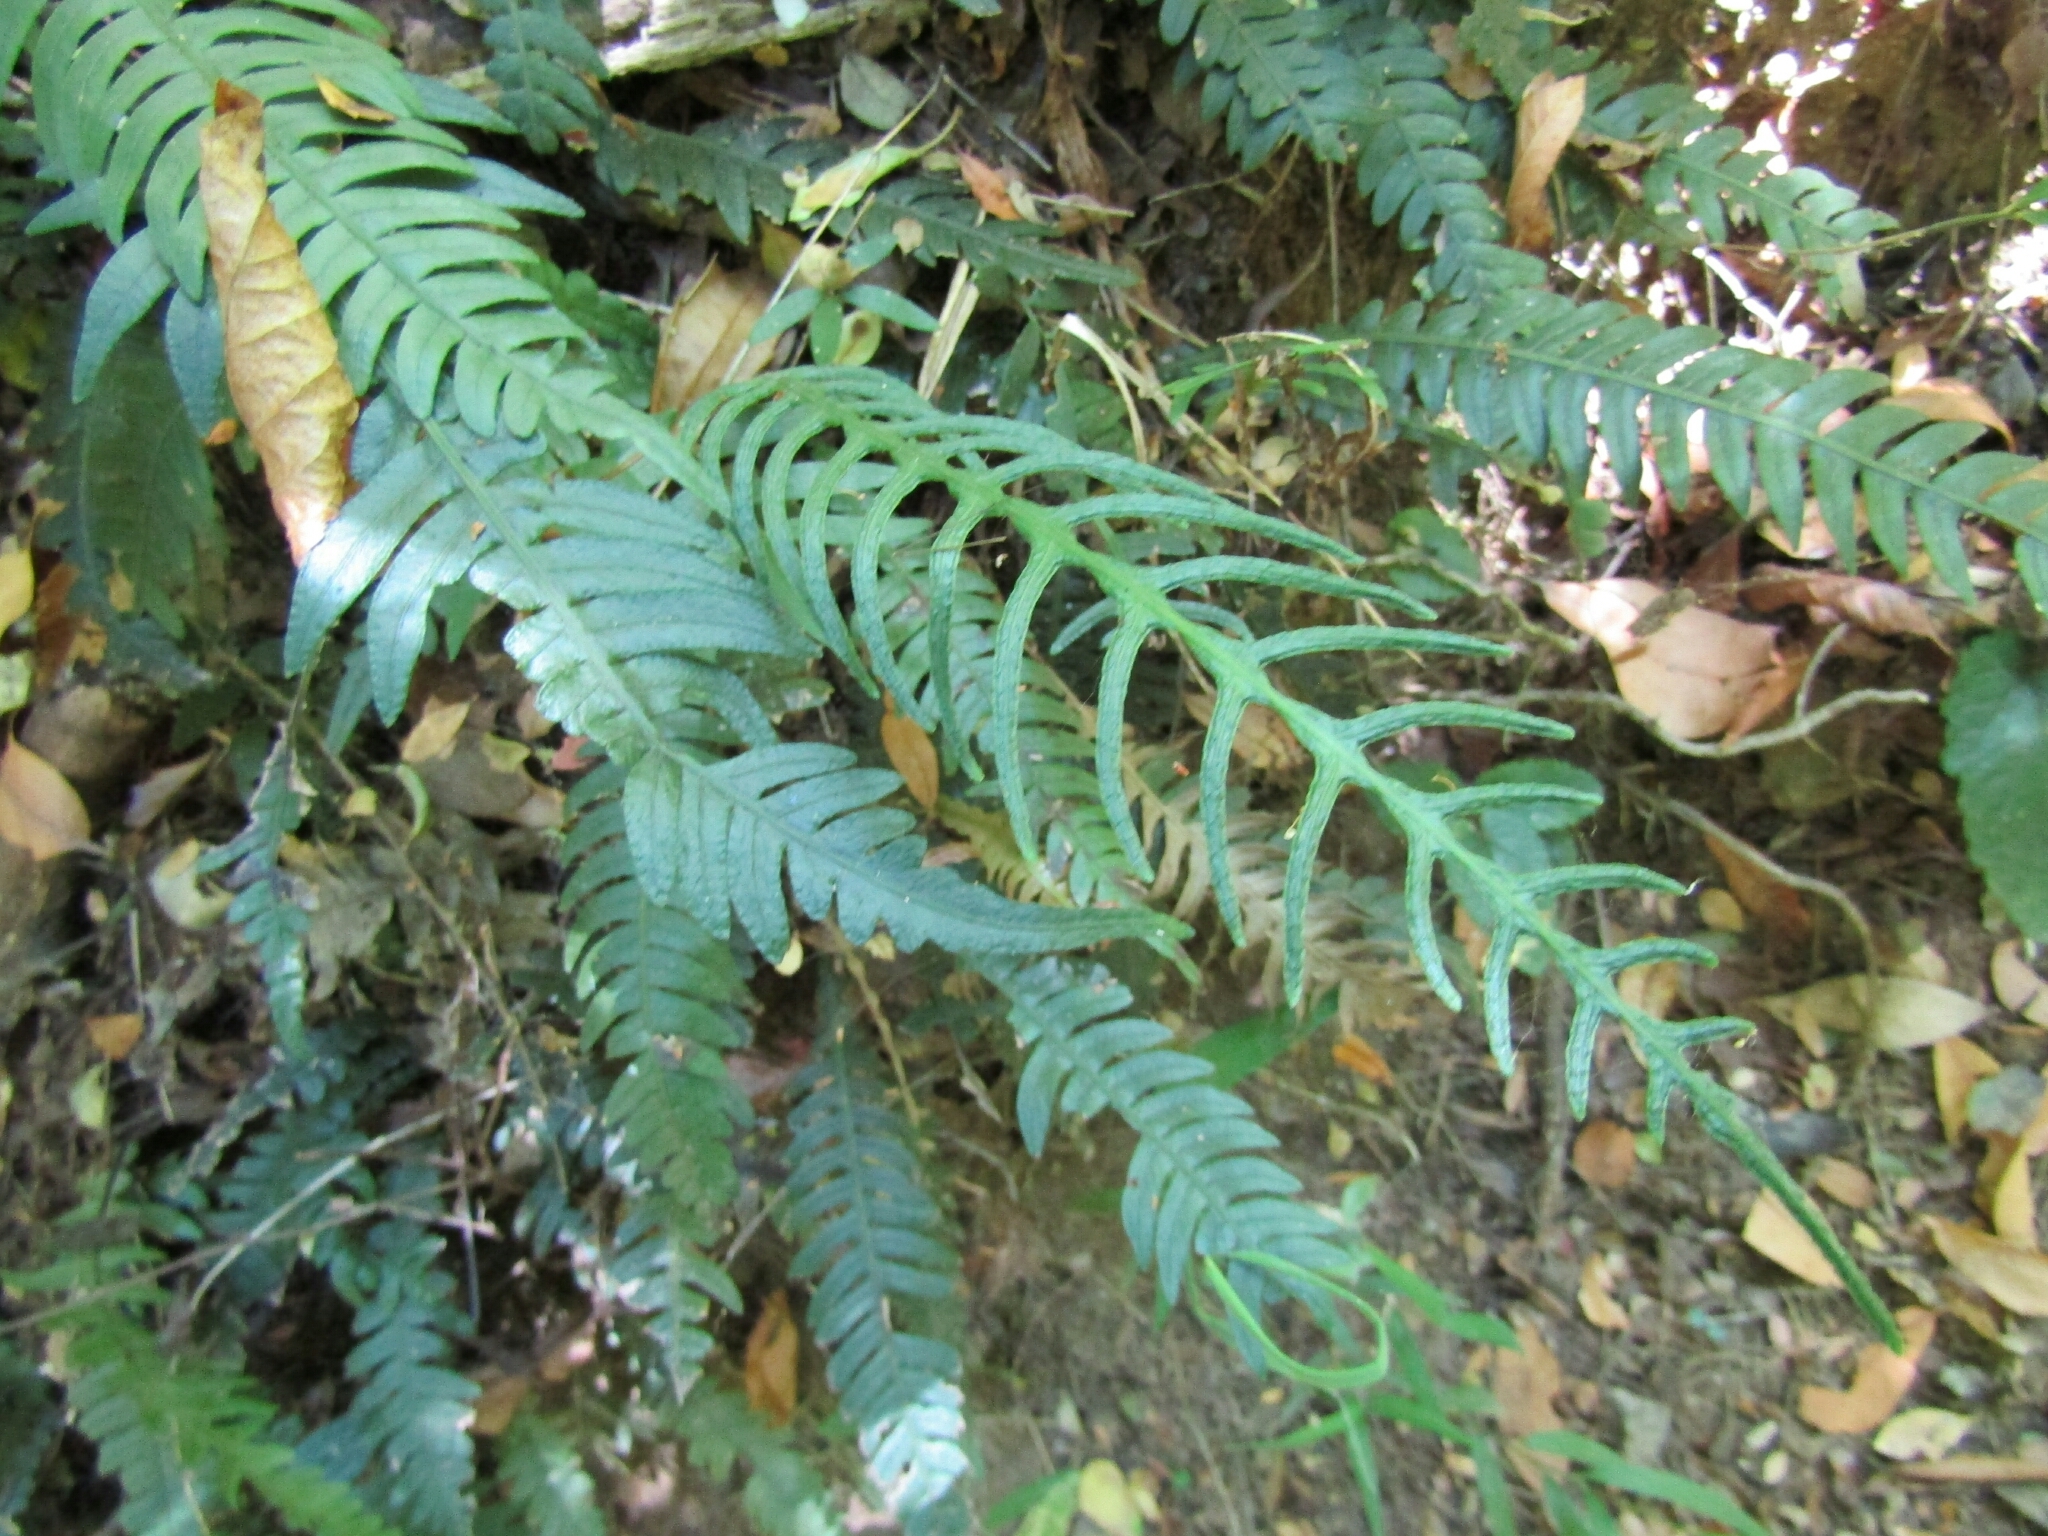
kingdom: Plantae
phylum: Tracheophyta
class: Polypodiopsida
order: Polypodiales
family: Blechnaceae
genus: Austroblechnum
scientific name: Austroblechnum lechleri
